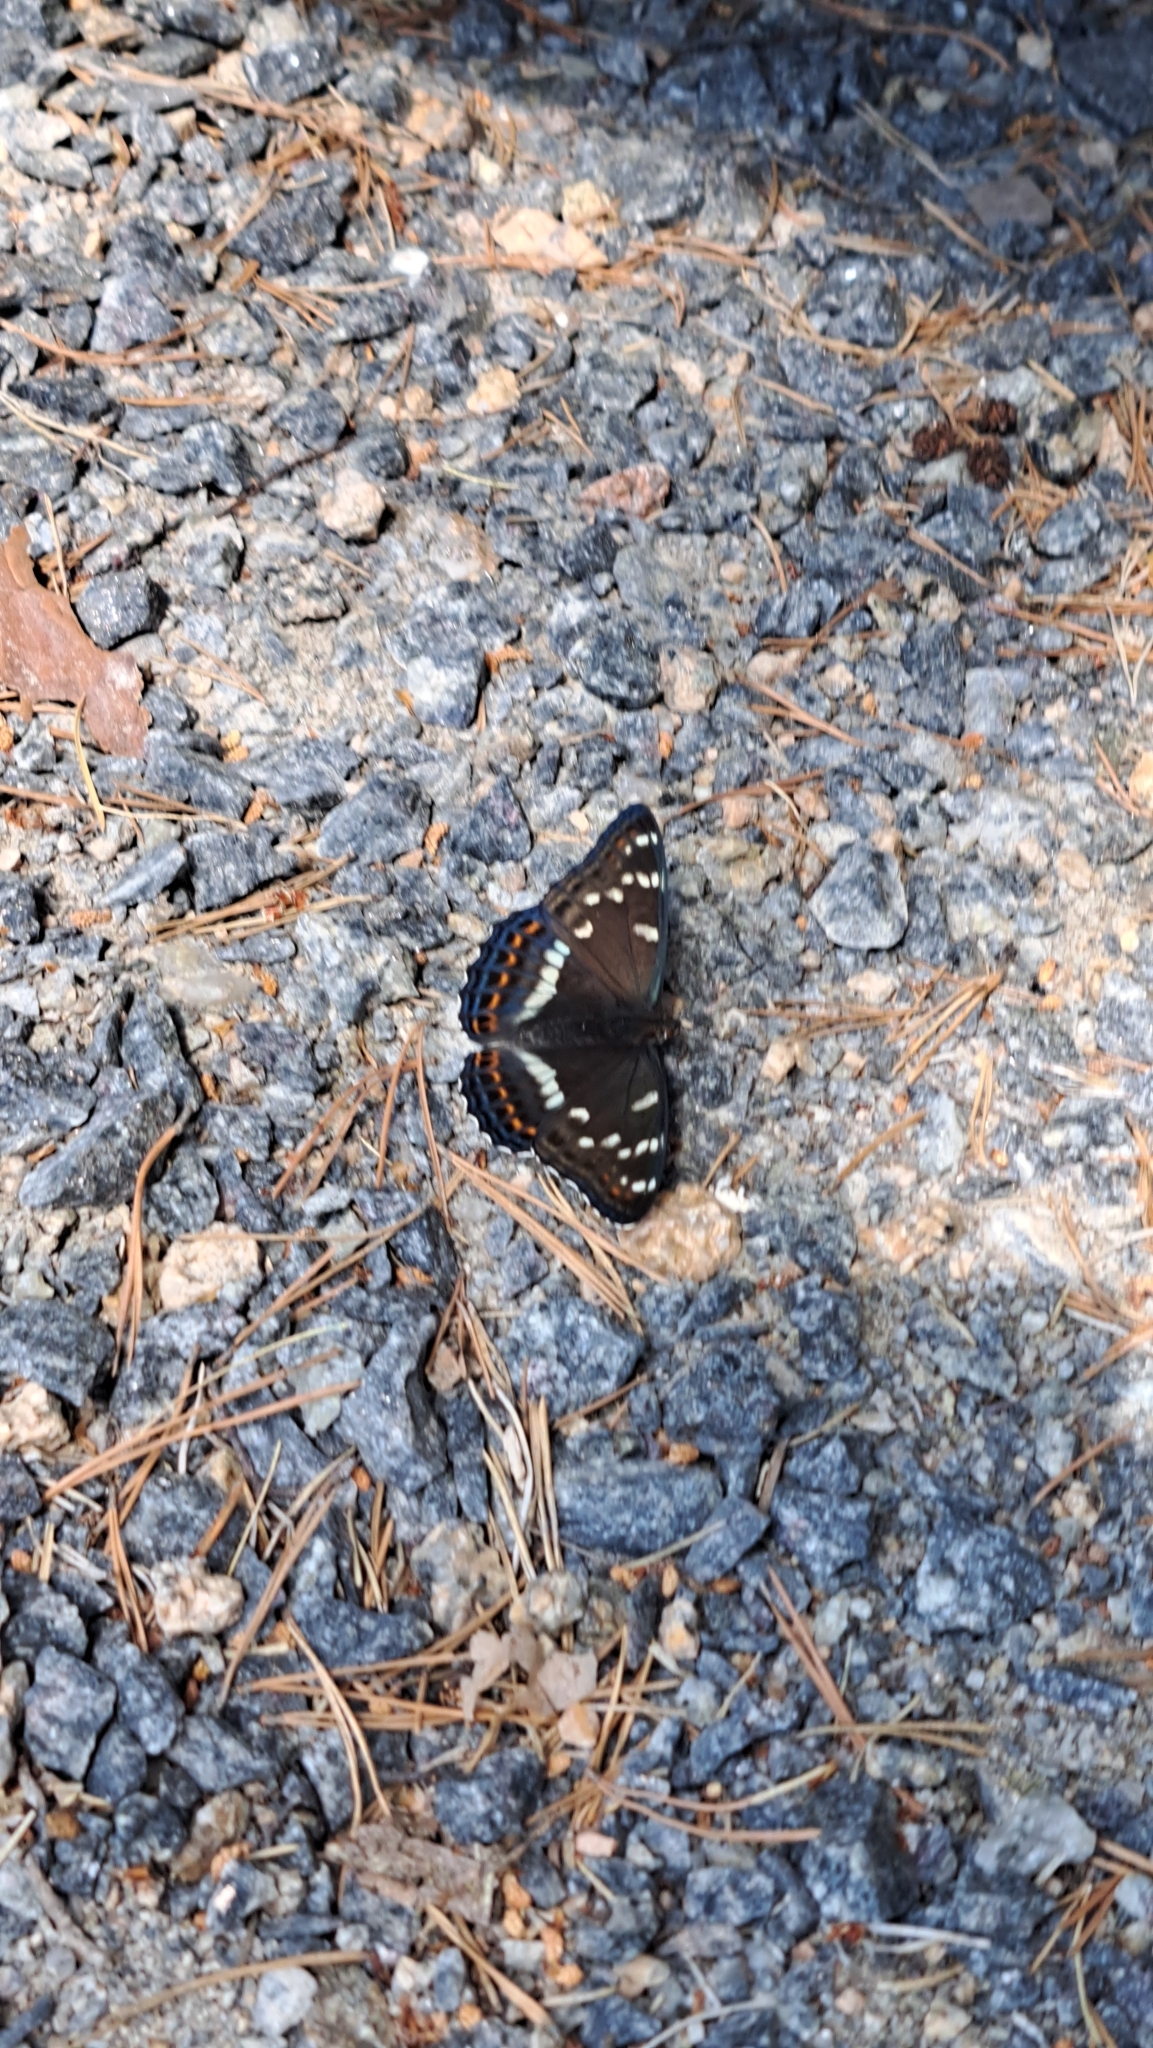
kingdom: Animalia
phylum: Arthropoda
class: Insecta
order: Lepidoptera
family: Nymphalidae
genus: Limenitis
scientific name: Limenitis populi
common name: Poplar admiral
